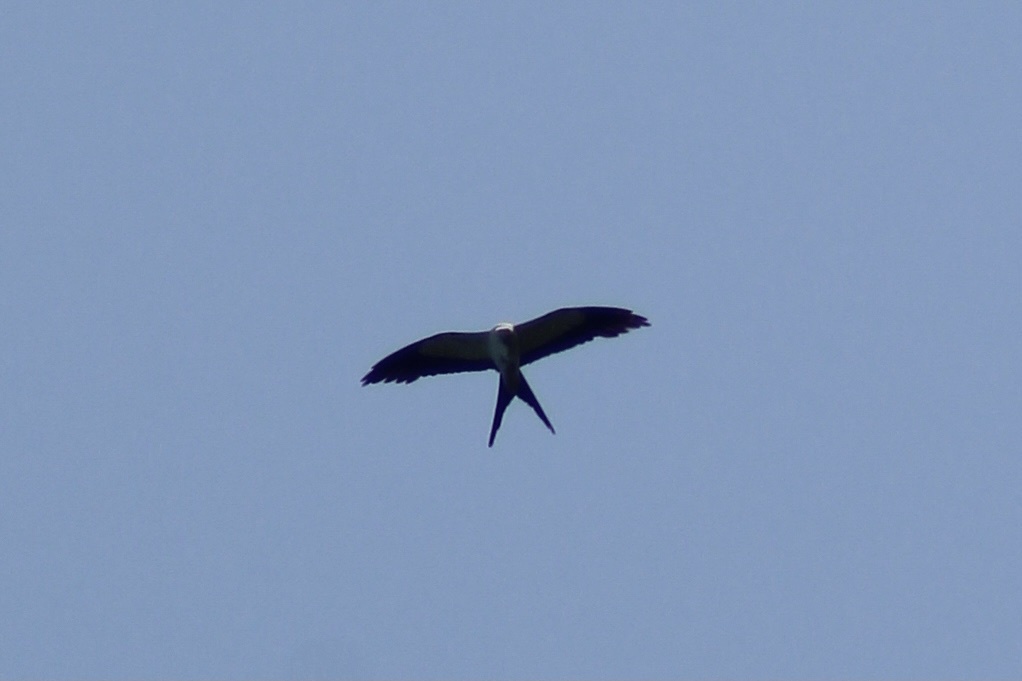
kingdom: Animalia
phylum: Chordata
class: Aves
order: Accipitriformes
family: Accipitridae
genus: Elanoides
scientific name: Elanoides forficatus
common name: Swallow-tailed kite
